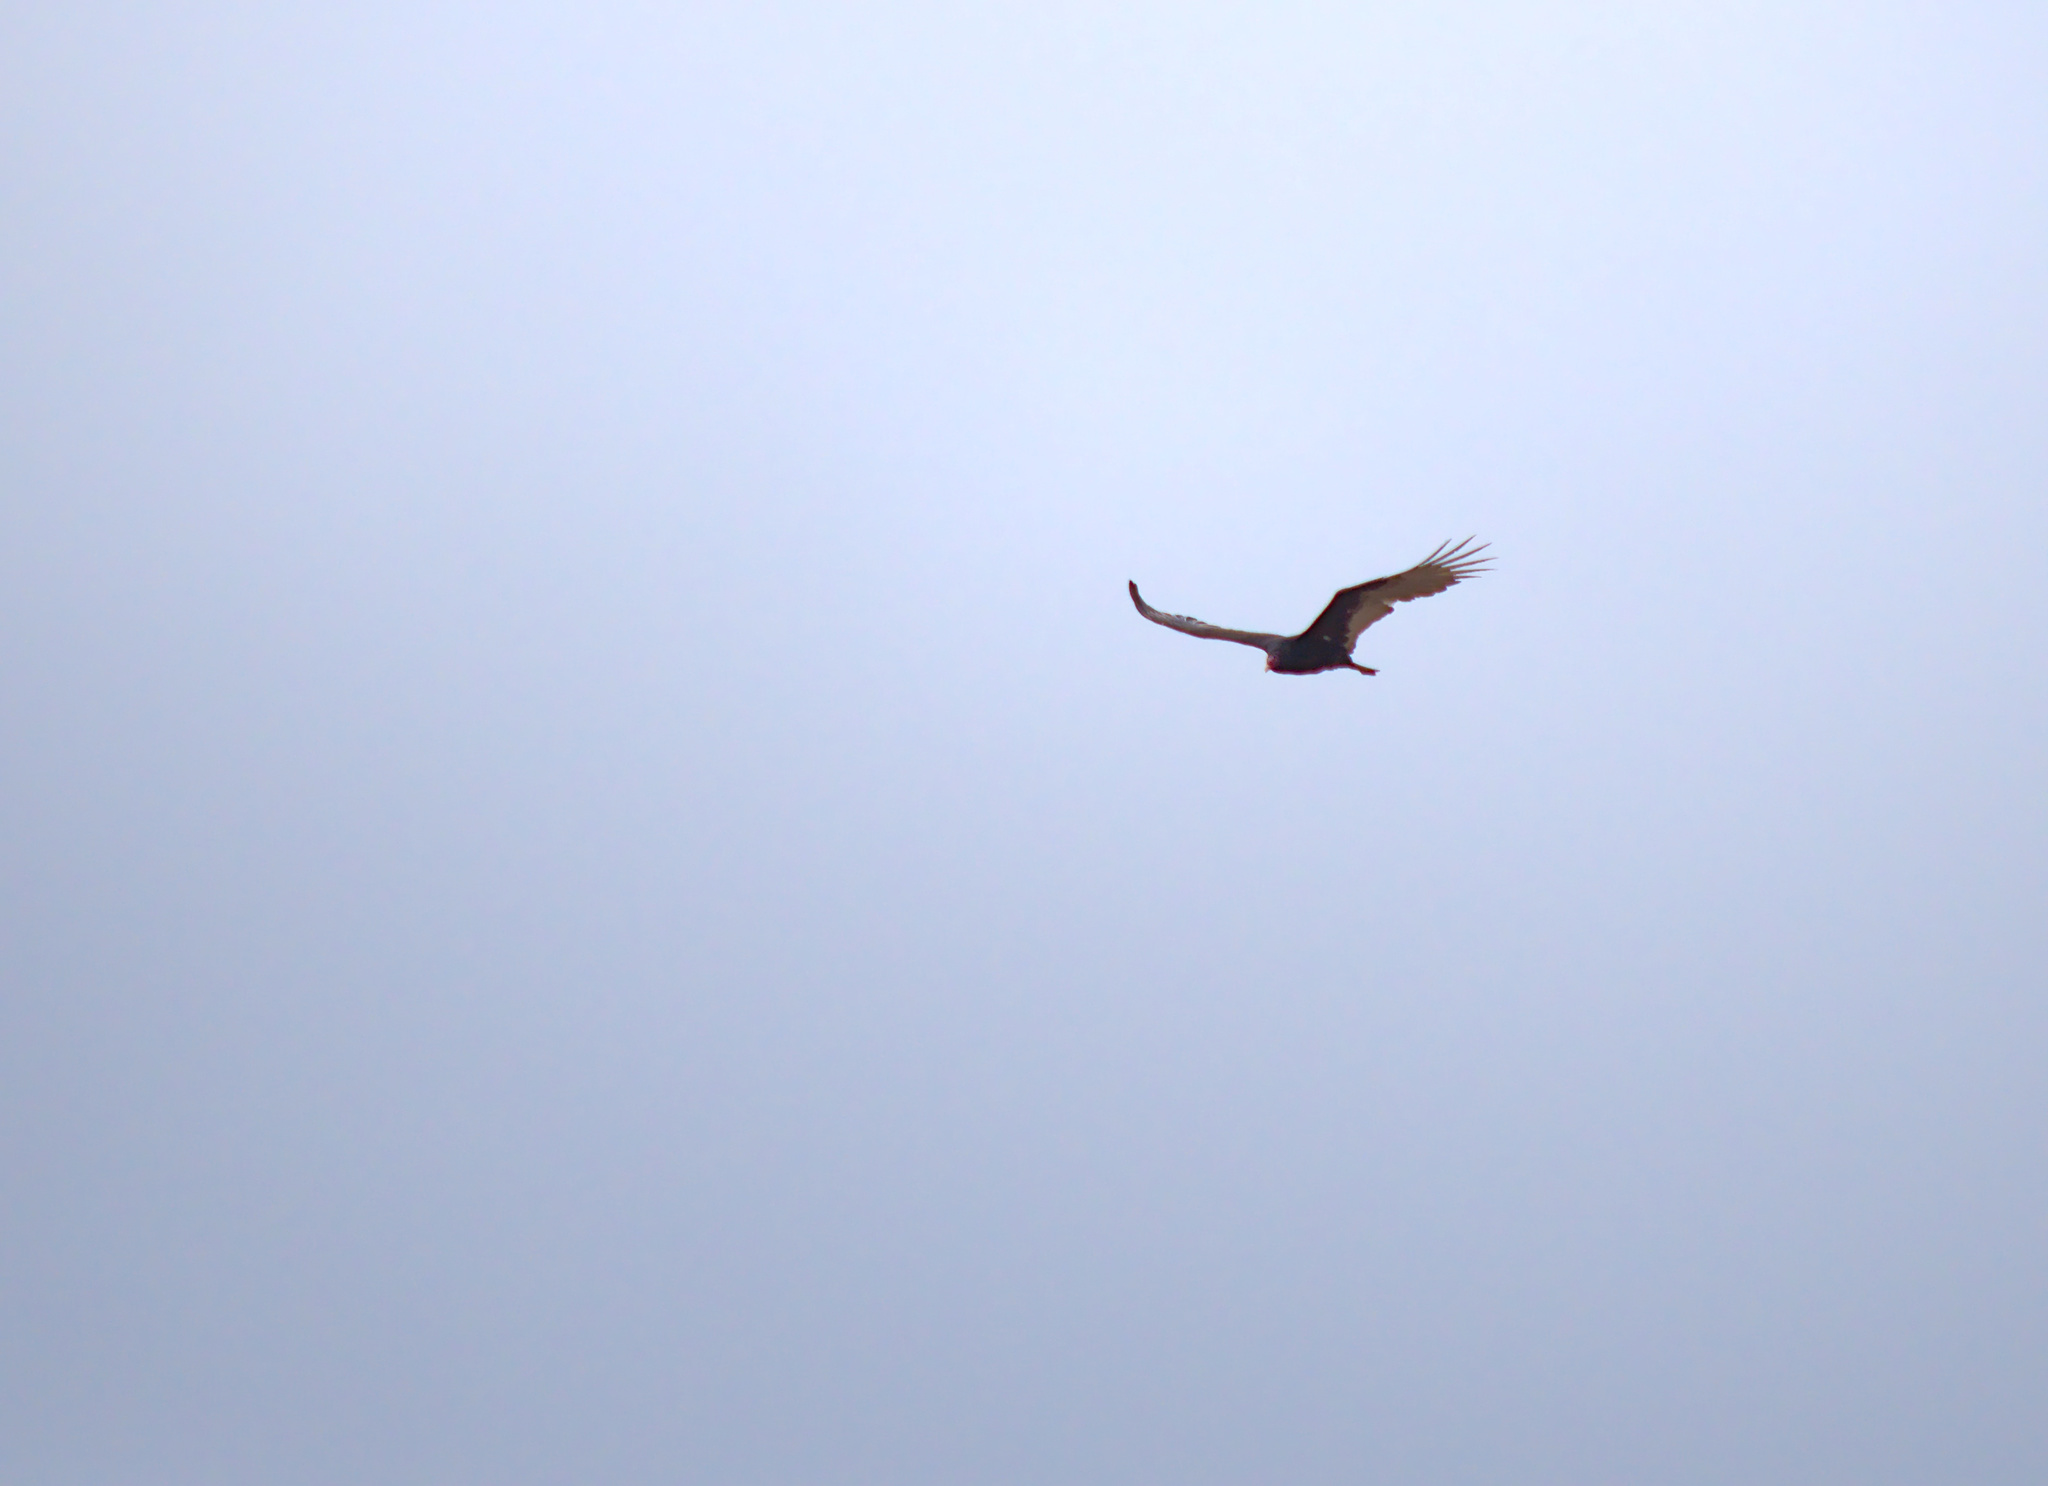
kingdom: Animalia
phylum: Chordata
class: Aves
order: Accipitriformes
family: Cathartidae
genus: Cathartes
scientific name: Cathartes aura
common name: Turkey vulture
